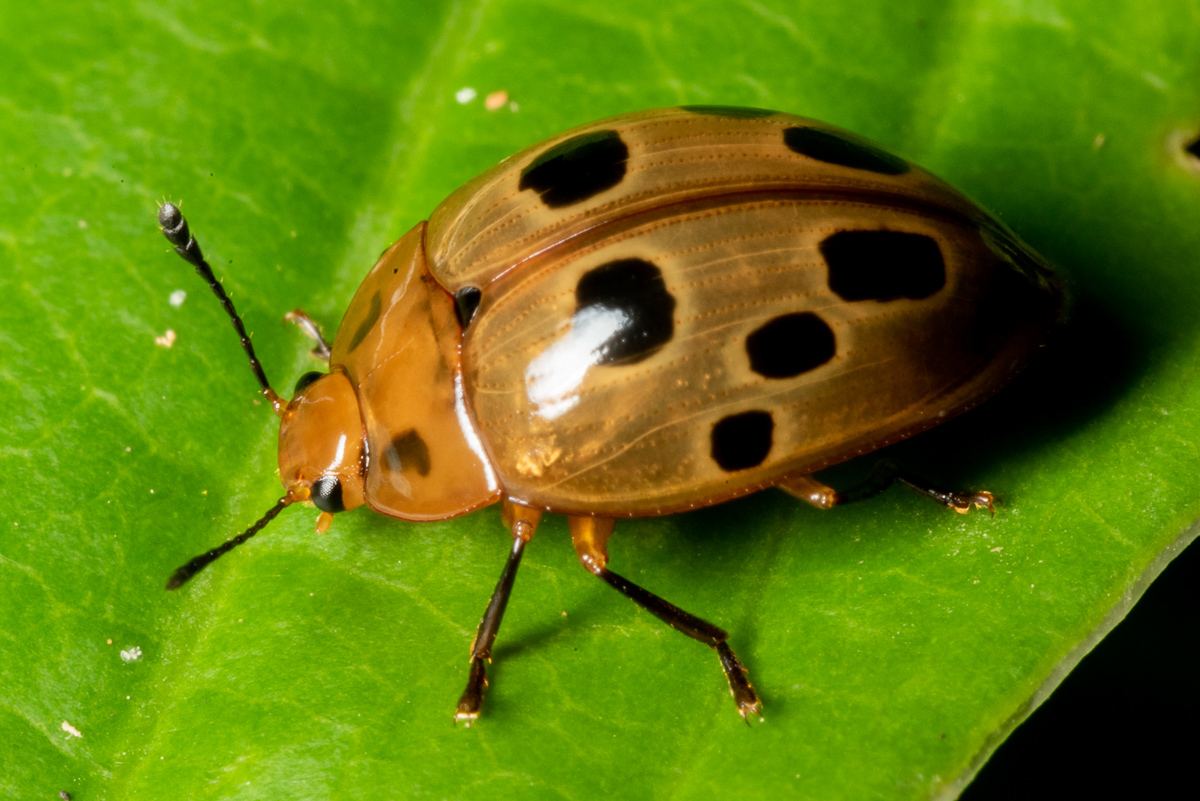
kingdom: Animalia
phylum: Arthropoda
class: Insecta
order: Coleoptera
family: Erotylidae
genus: Iphiclus
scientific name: Iphiclus
